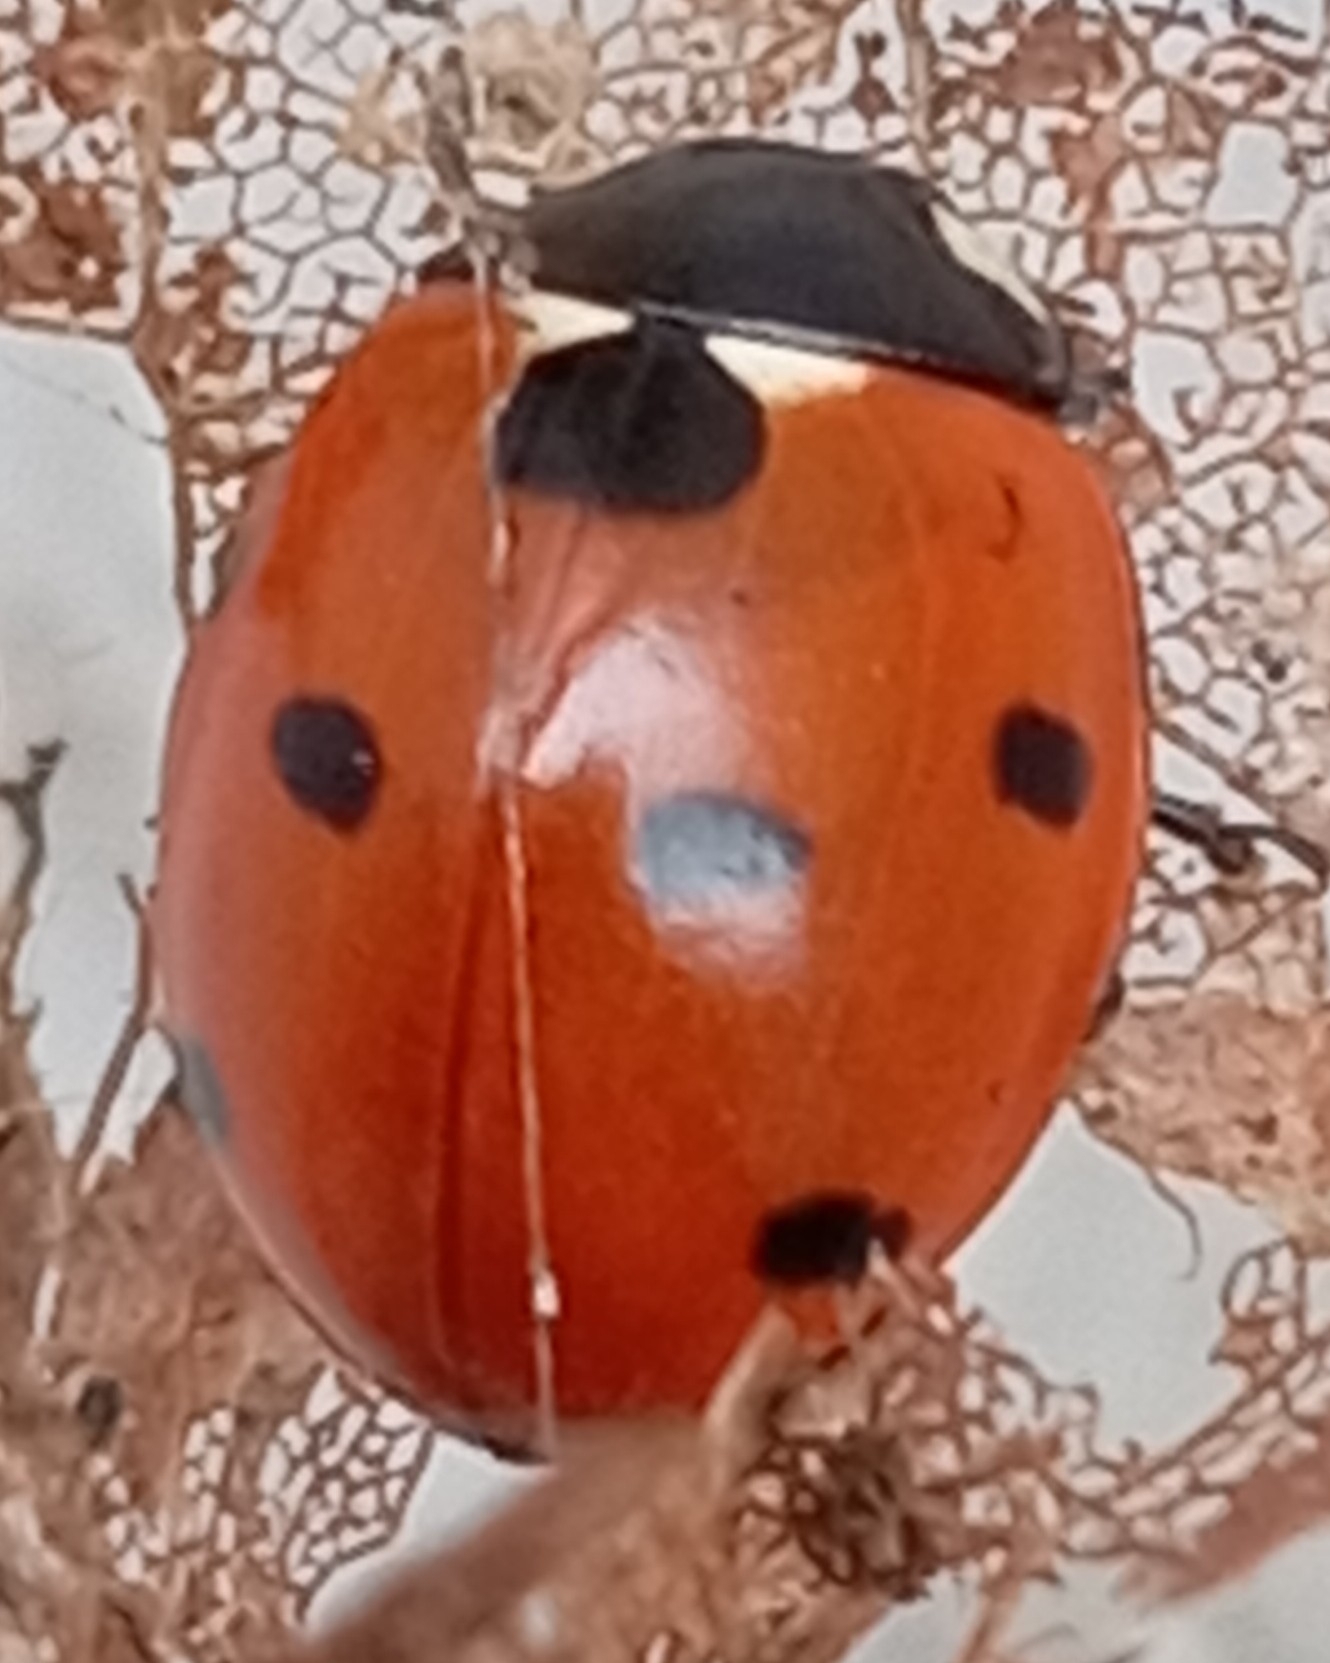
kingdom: Animalia
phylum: Arthropoda
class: Insecta
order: Coleoptera
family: Coccinellidae
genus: Coccinella
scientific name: Coccinella septempunctata
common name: Sevenspotted lady beetle
